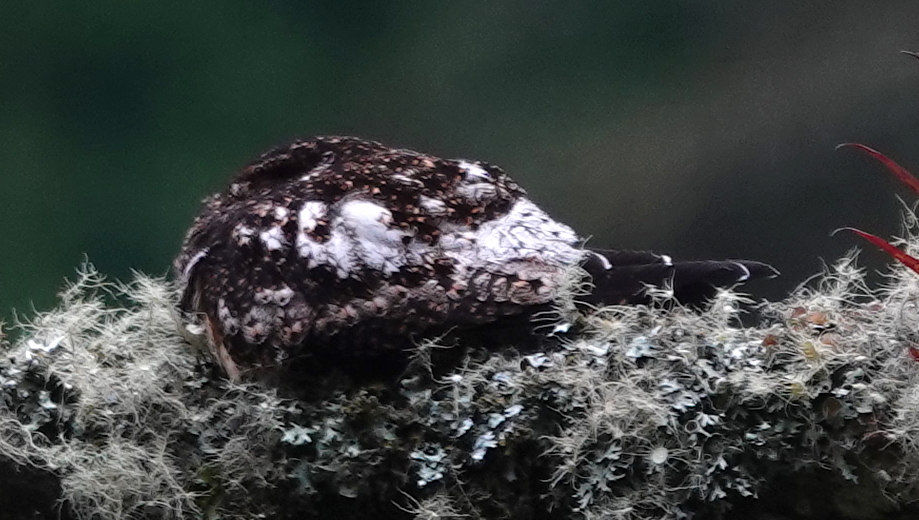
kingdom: Animalia
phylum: Chordata
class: Aves
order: Caprimulgiformes
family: Caprimulgidae
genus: Lurocalis
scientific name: Lurocalis rufiventris
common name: Rufous-bellied nighthawk
